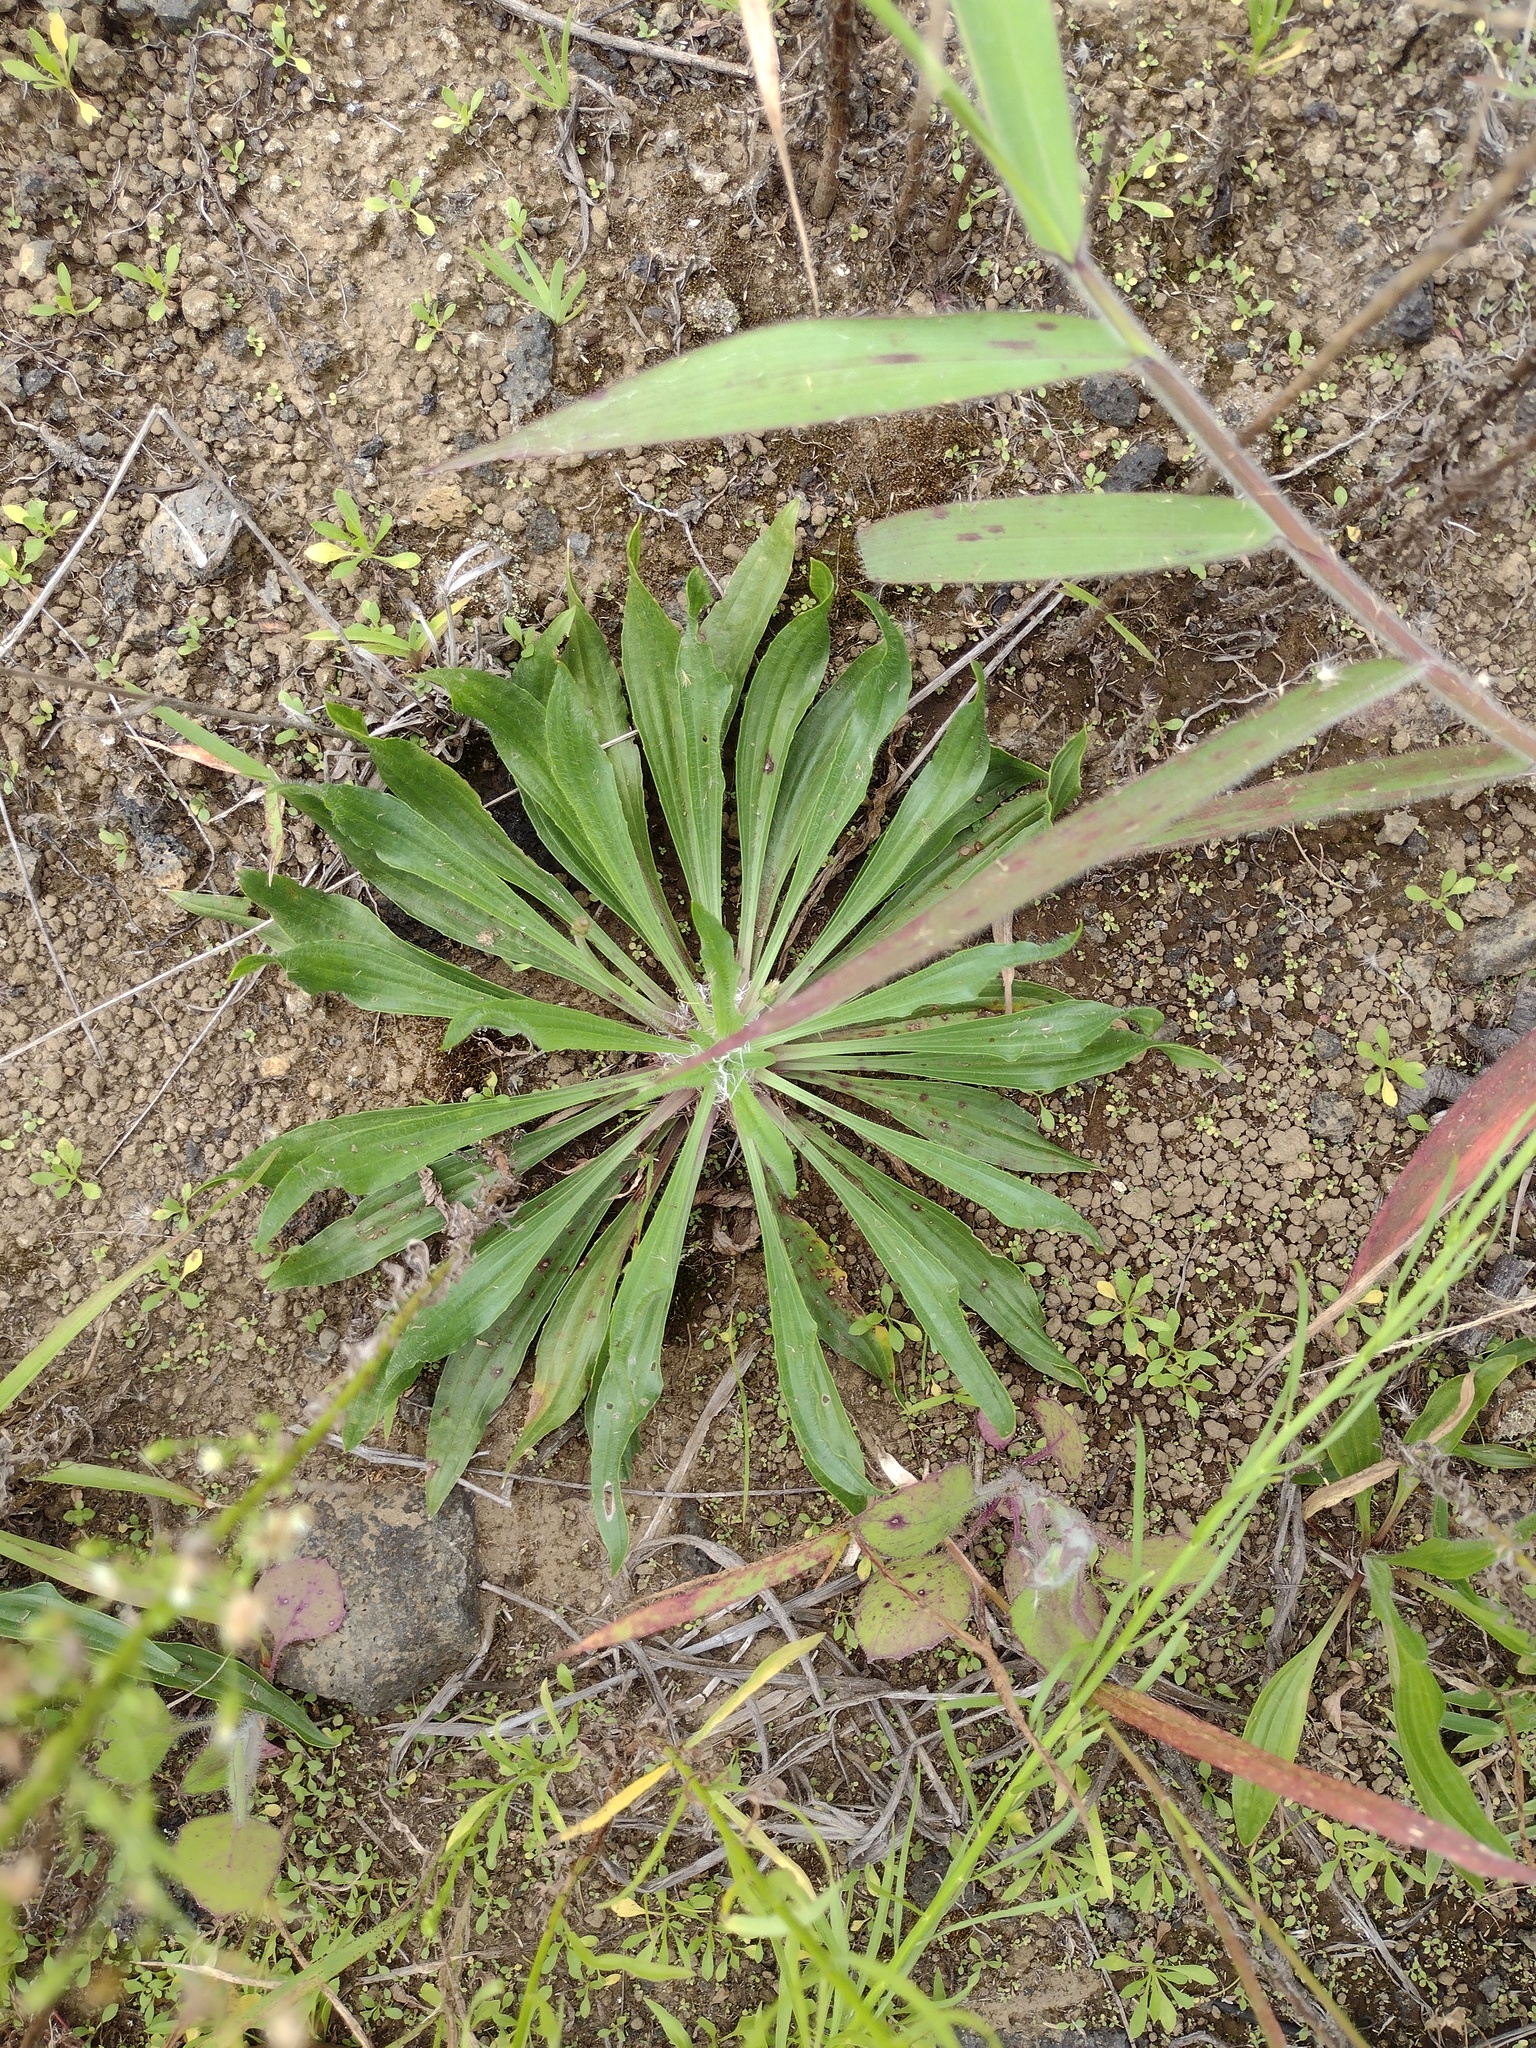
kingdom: Plantae
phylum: Tracheophyta
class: Magnoliopsida
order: Lamiales
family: Plantaginaceae
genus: Plantago
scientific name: Plantago lanceolata
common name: Ribwort plantain
